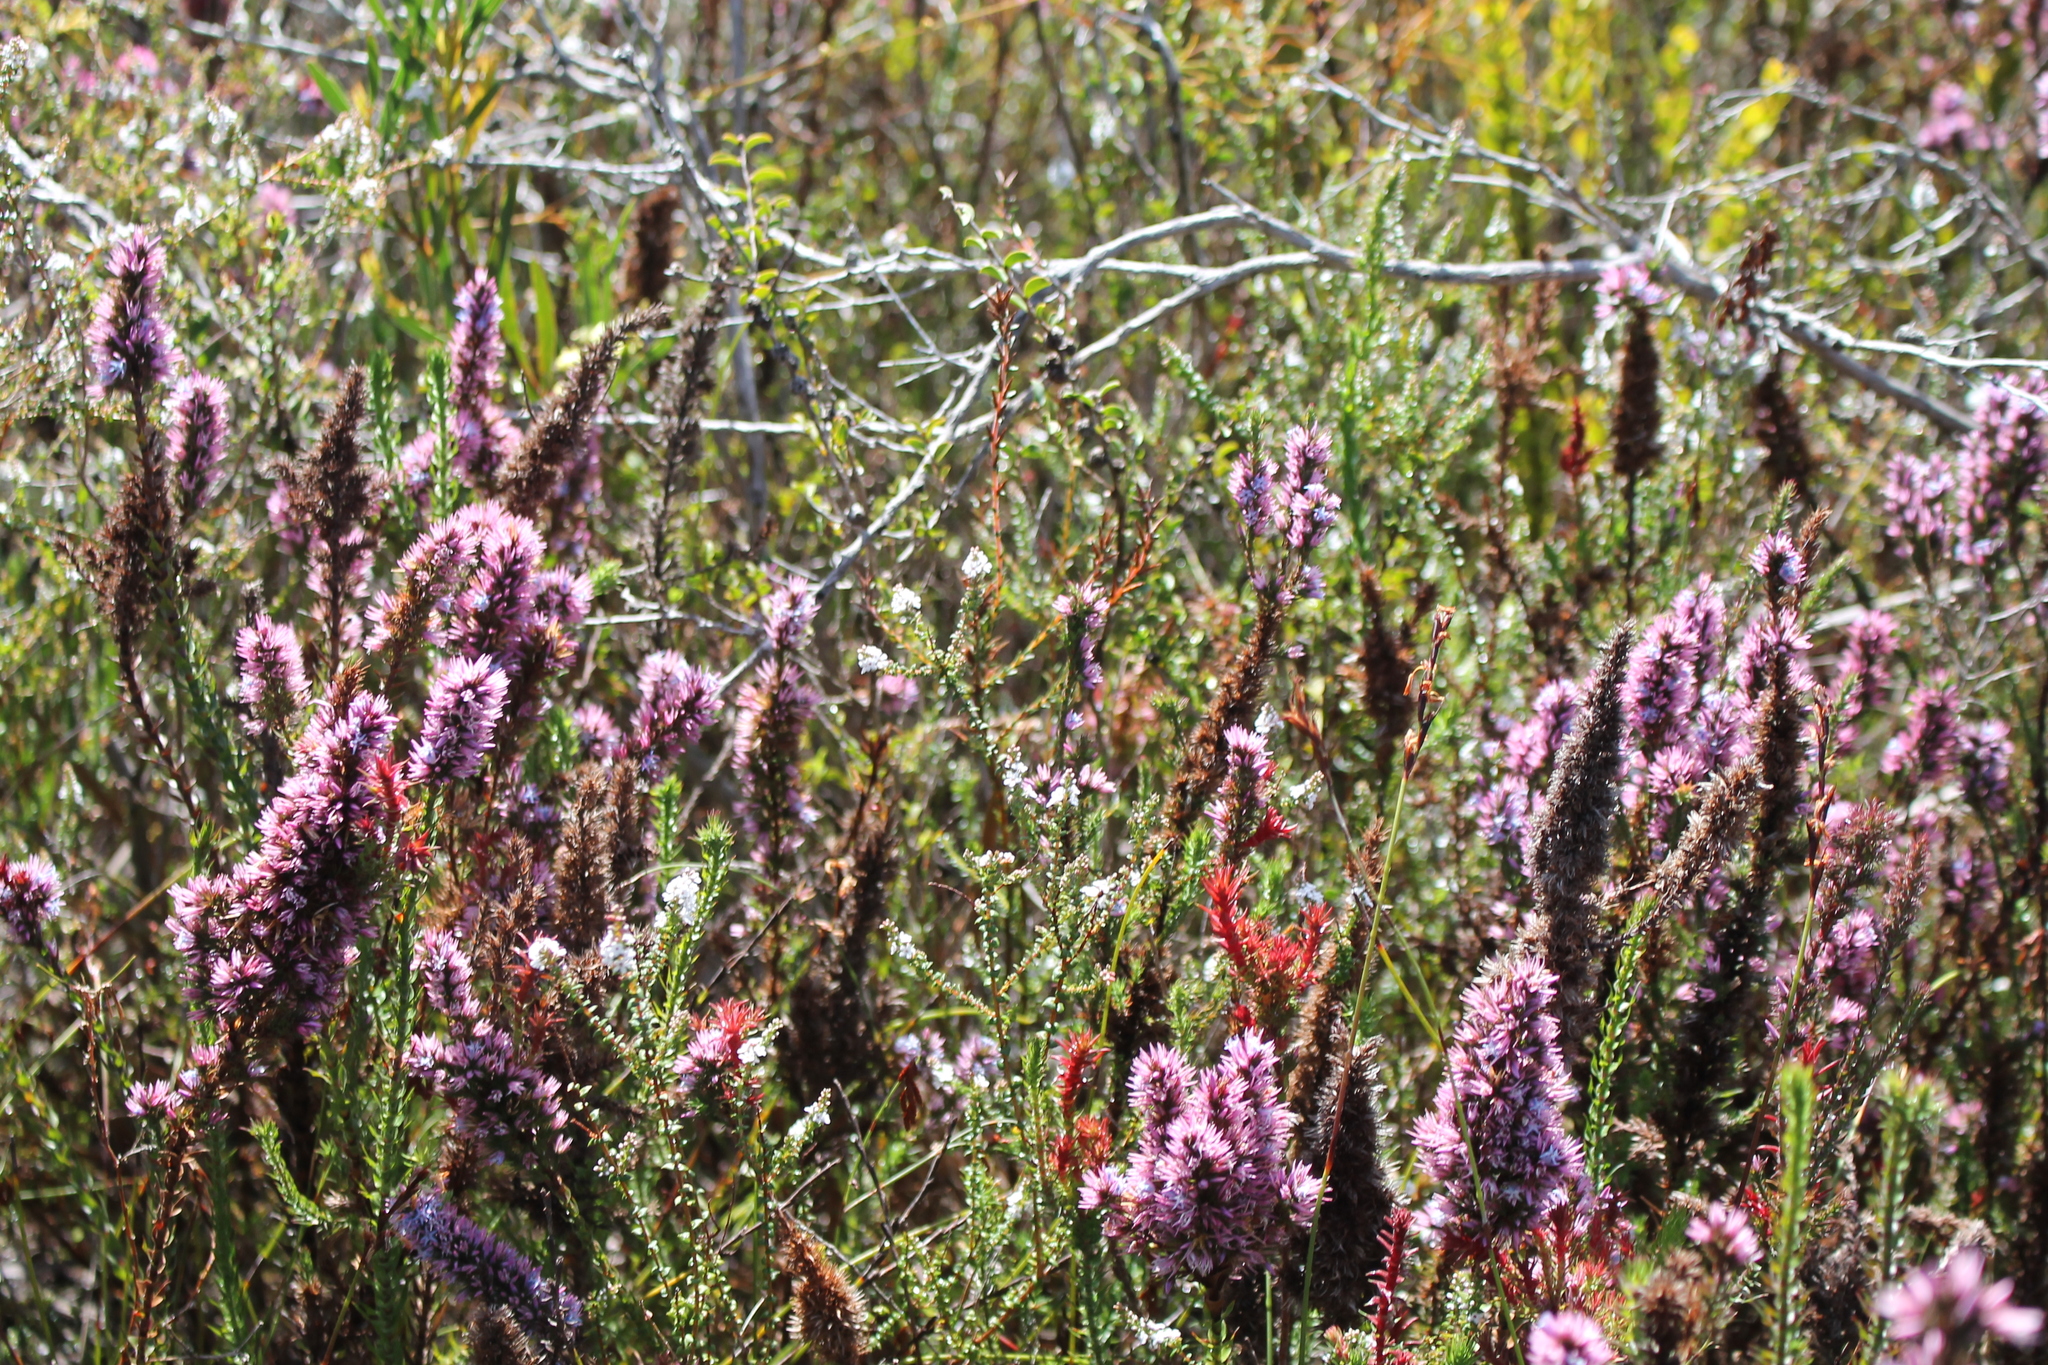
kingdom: Plantae
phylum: Tracheophyta
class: Magnoliopsida
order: Ericales
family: Ericaceae
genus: Andersonia
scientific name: Andersonia caerulea
